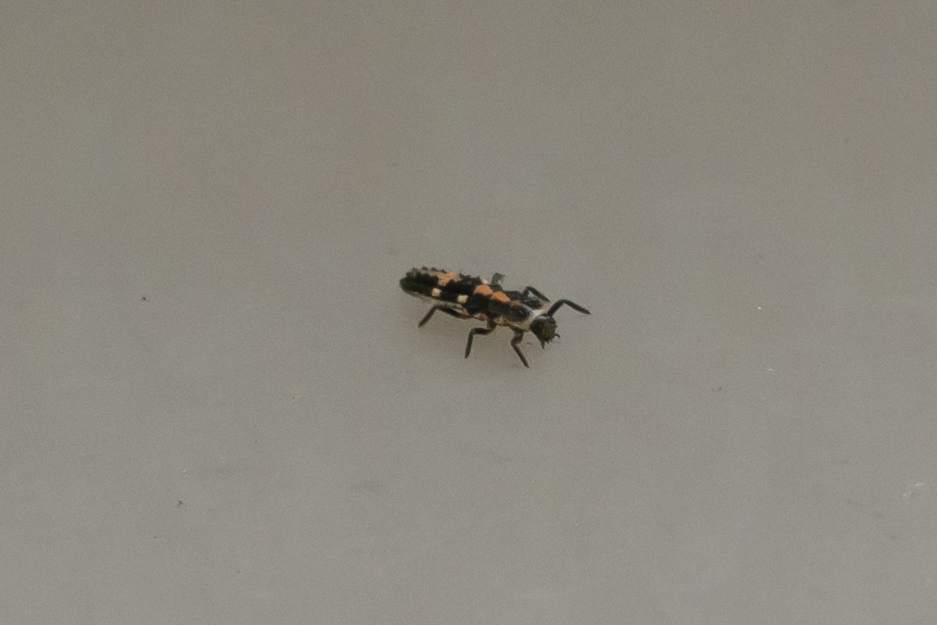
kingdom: Animalia
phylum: Arthropoda
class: Insecta
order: Coleoptera
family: Coccinellidae
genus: Oenopia
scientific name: Oenopia conglobata
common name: Ladybird beetle
